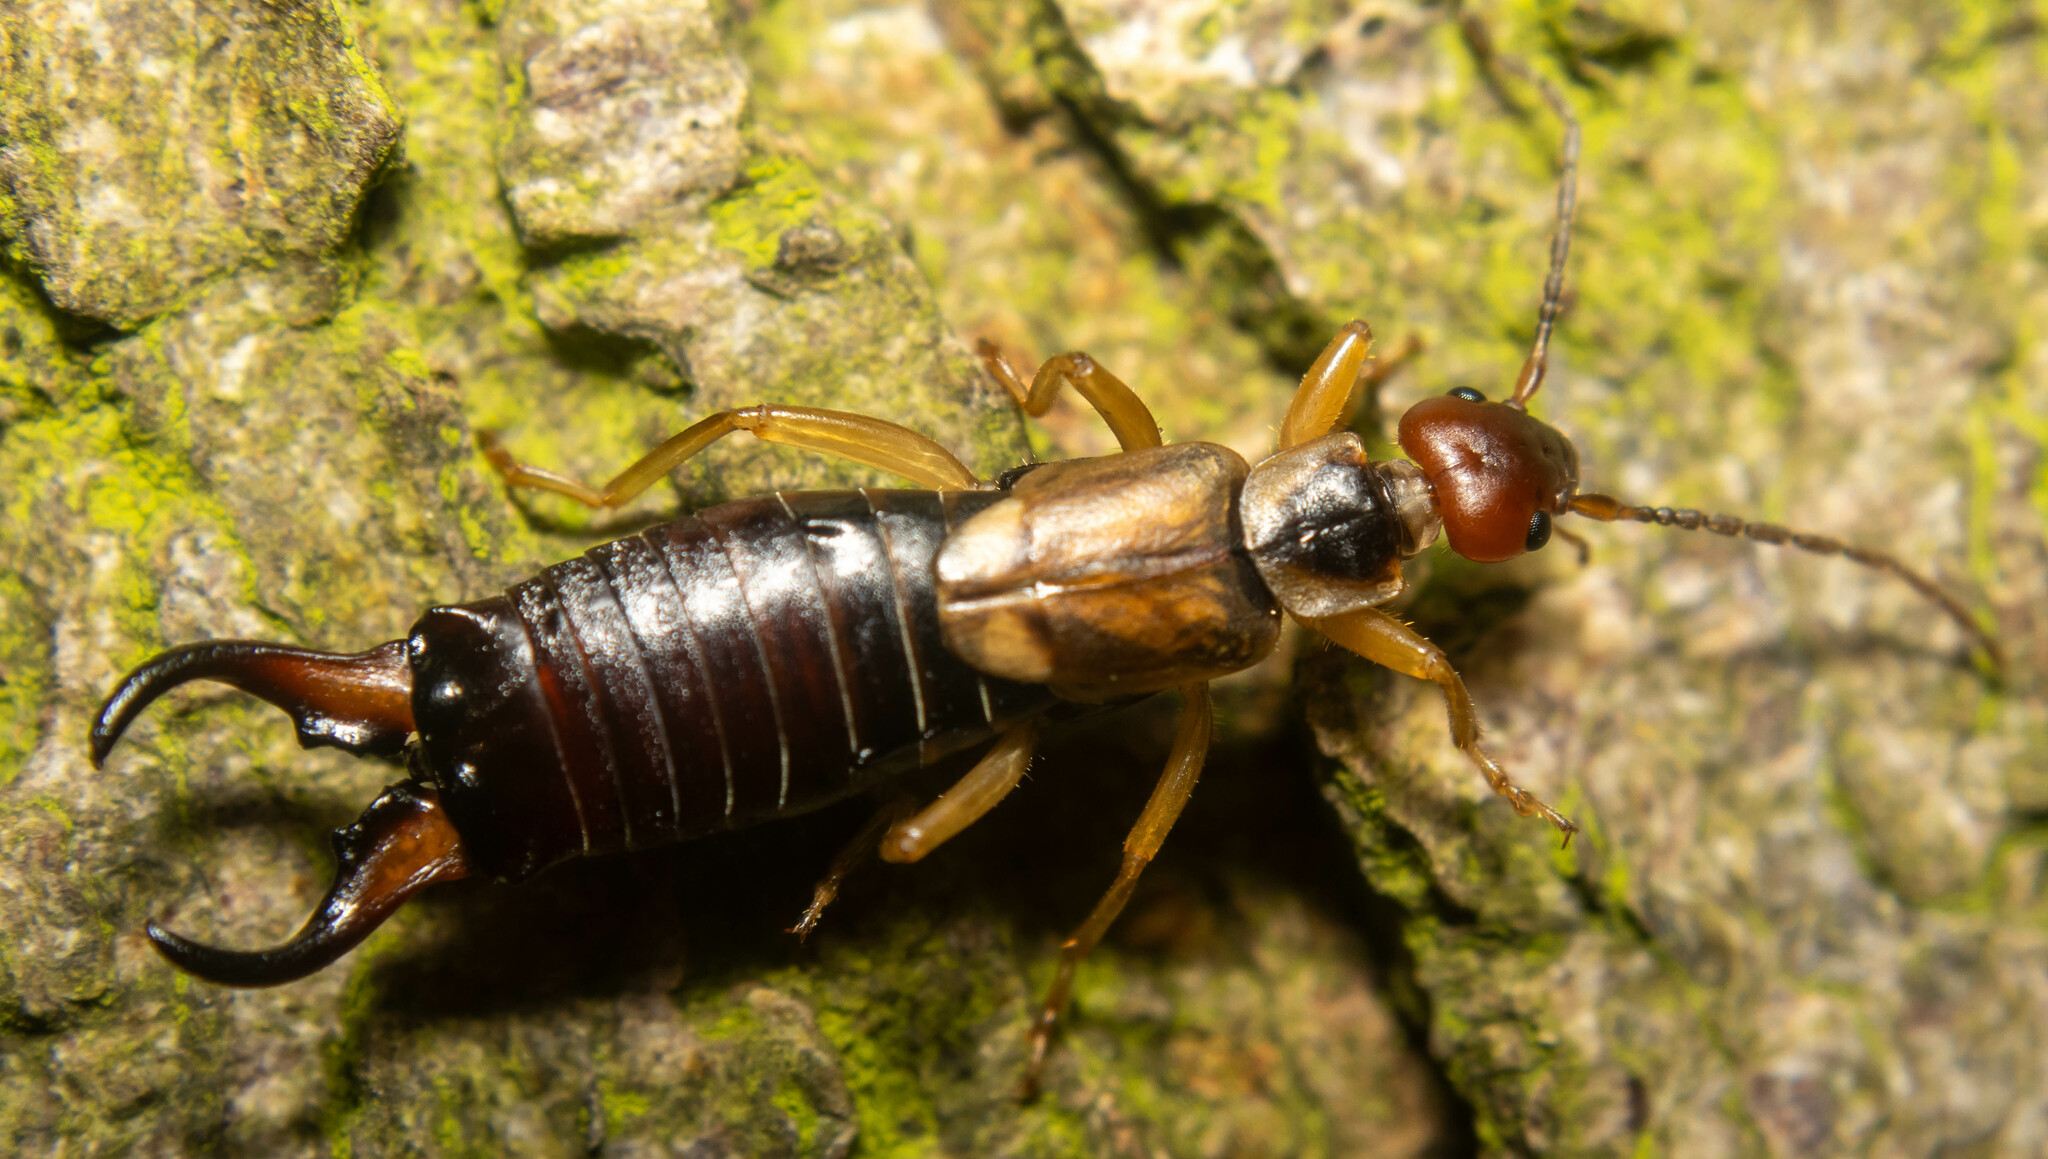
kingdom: Animalia
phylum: Arthropoda
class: Insecta
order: Dermaptera
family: Forficulidae
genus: Forficula
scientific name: Forficula dentata
